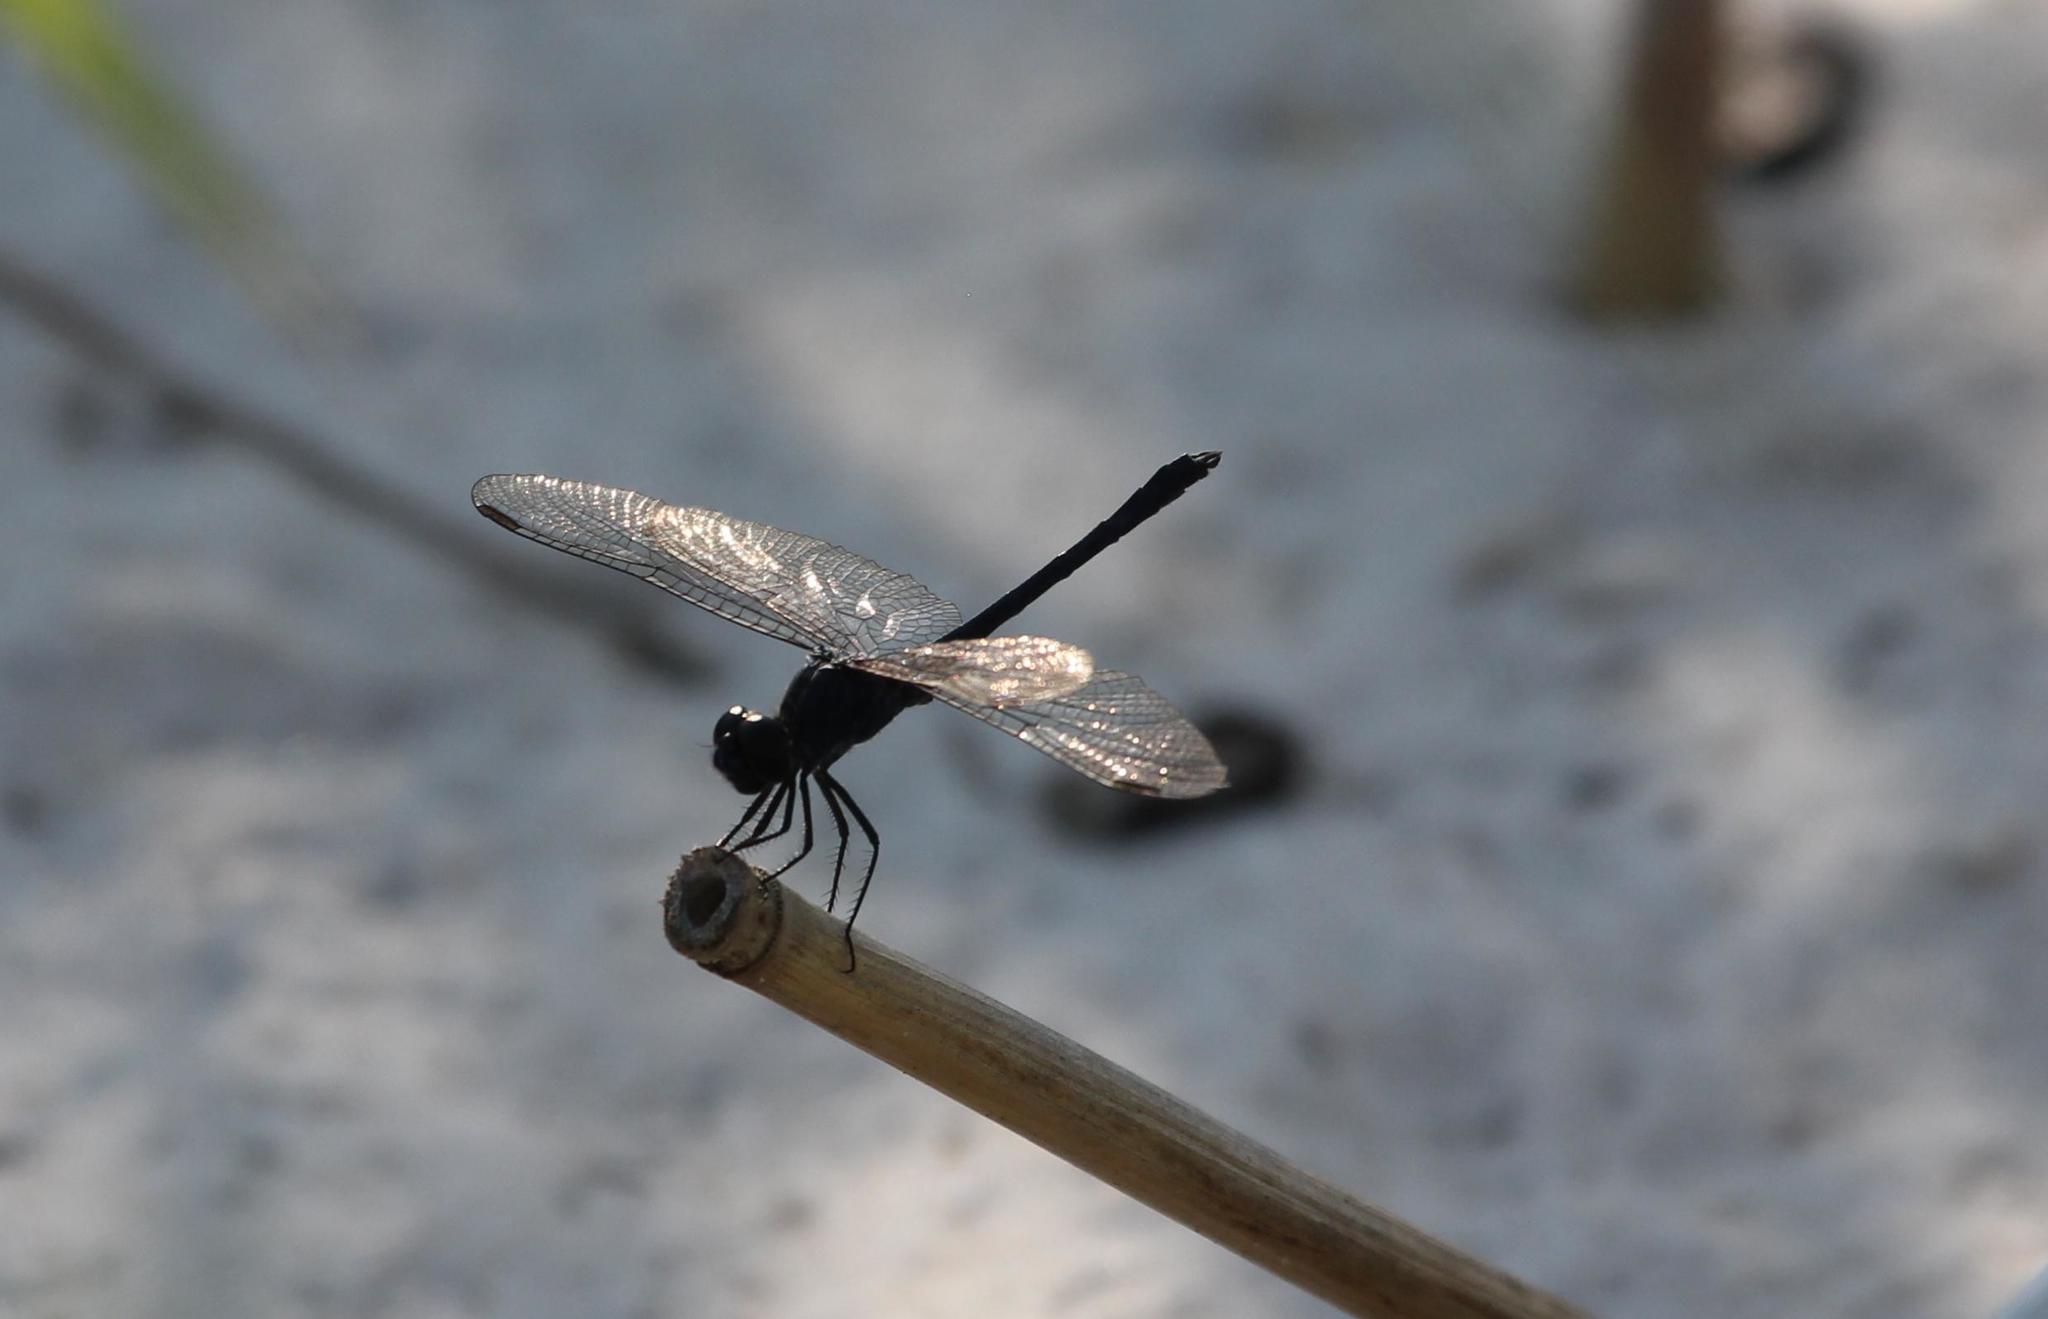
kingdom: Animalia
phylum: Arthropoda
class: Insecta
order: Odonata
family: Libellulidae
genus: Erythrodiplax
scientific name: Erythrodiplax berenice
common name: Seaside dragonlet
